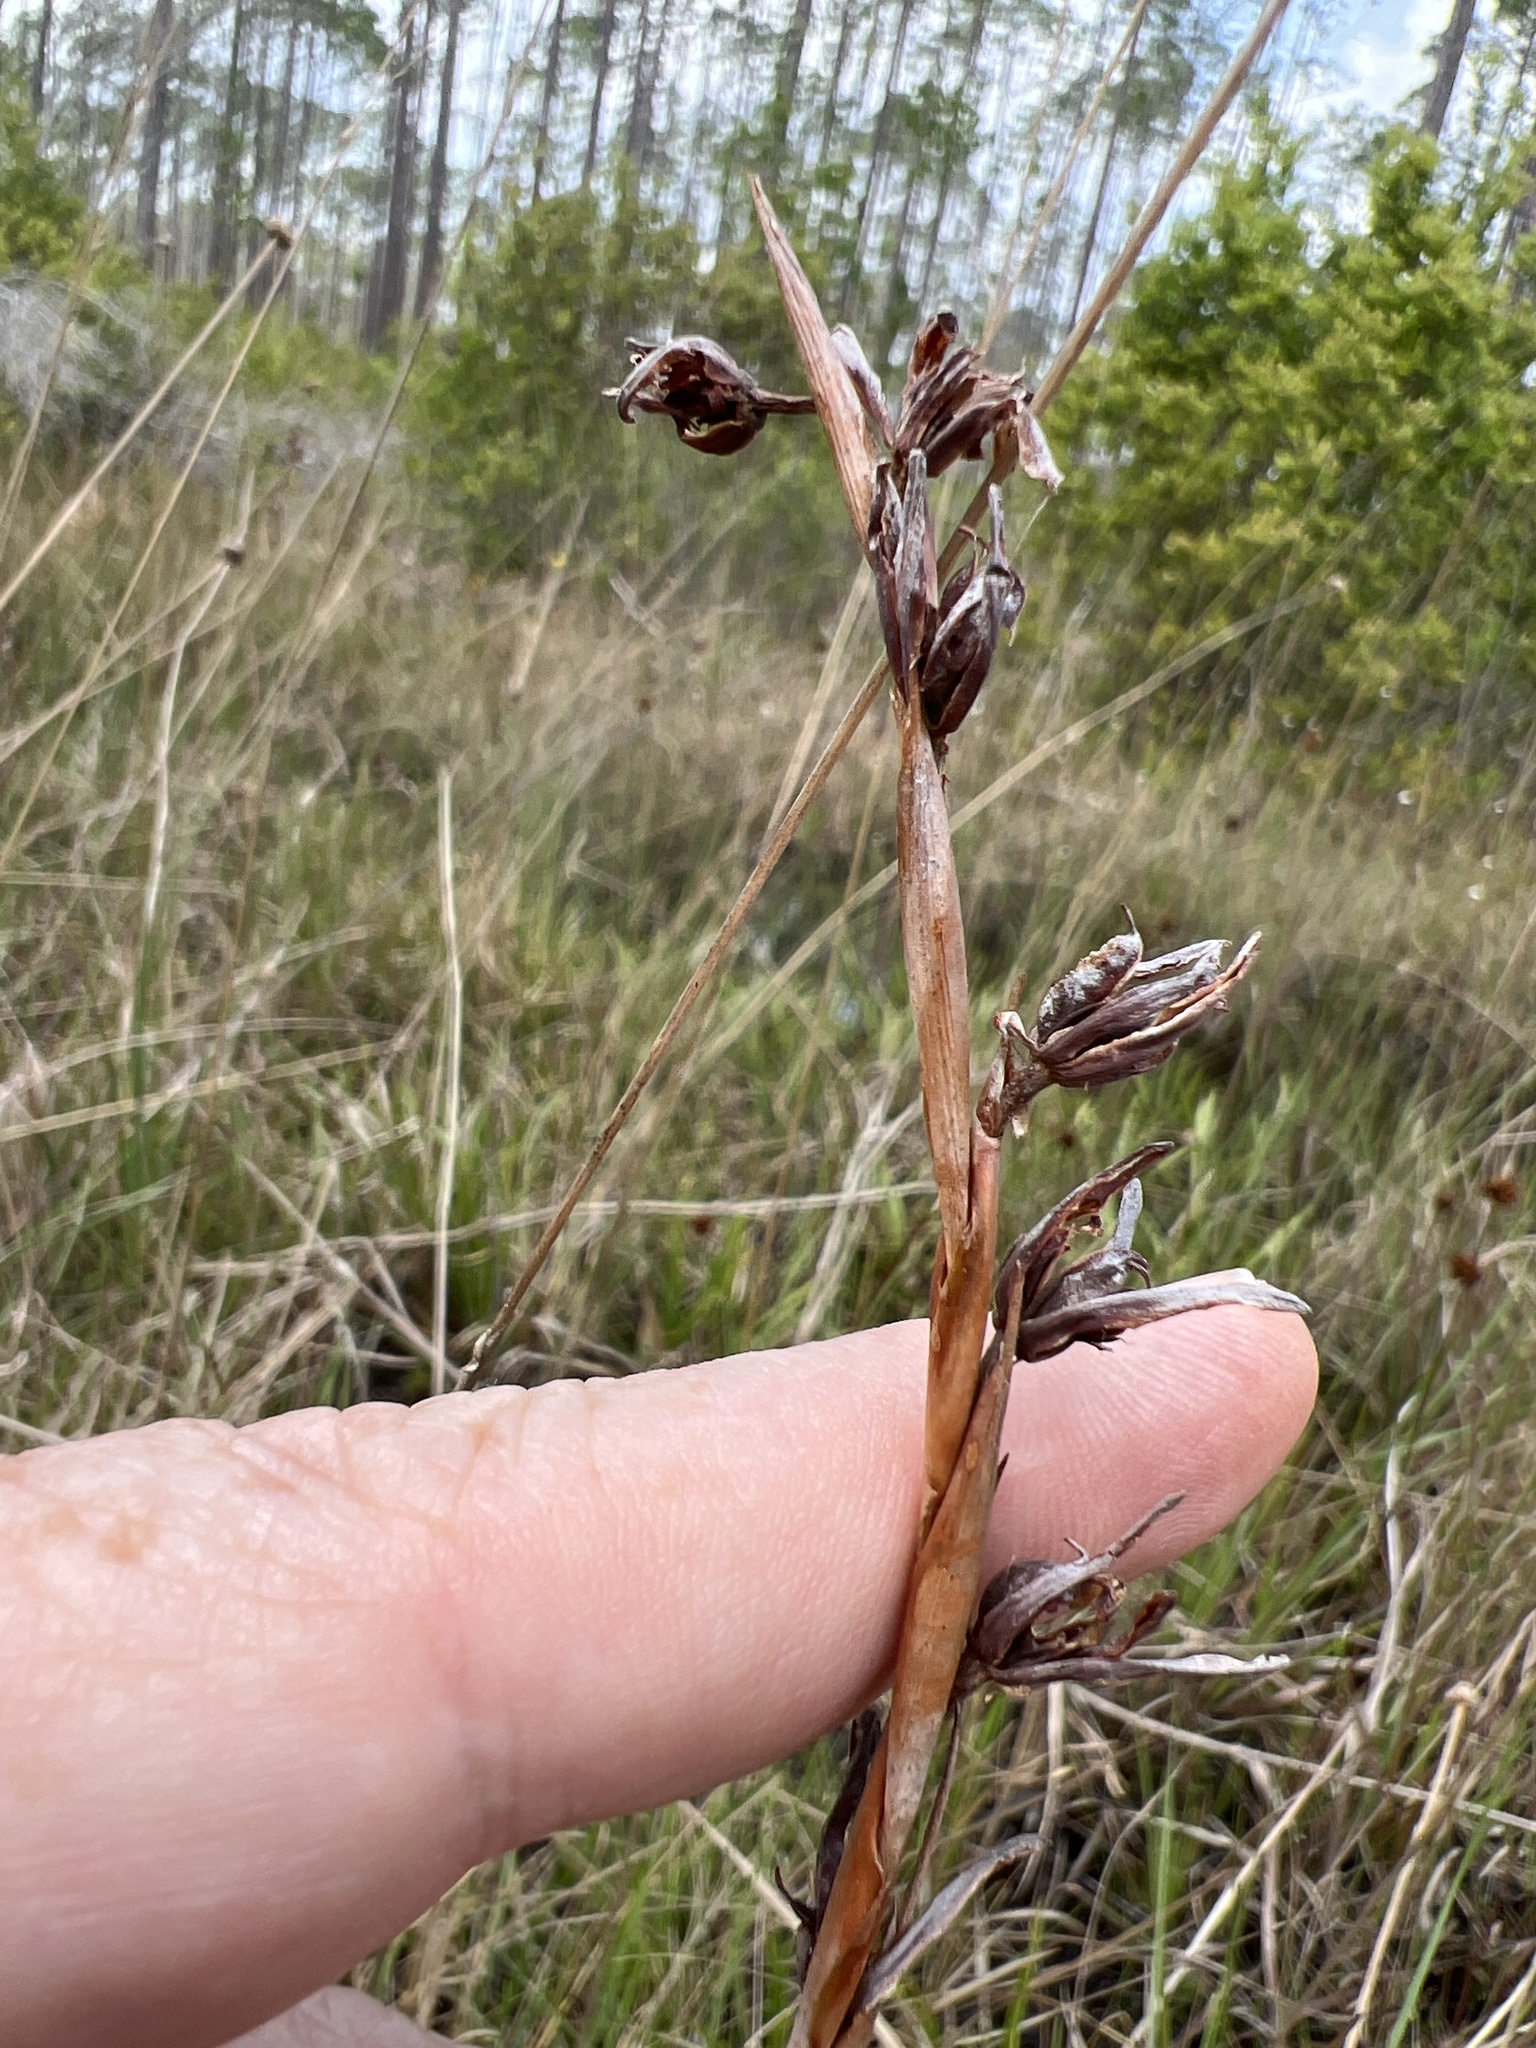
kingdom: Plantae
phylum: Tracheophyta
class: Liliopsida
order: Alismatales
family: Tofieldiaceae
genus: Pleea
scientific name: Pleea tenuifolia
